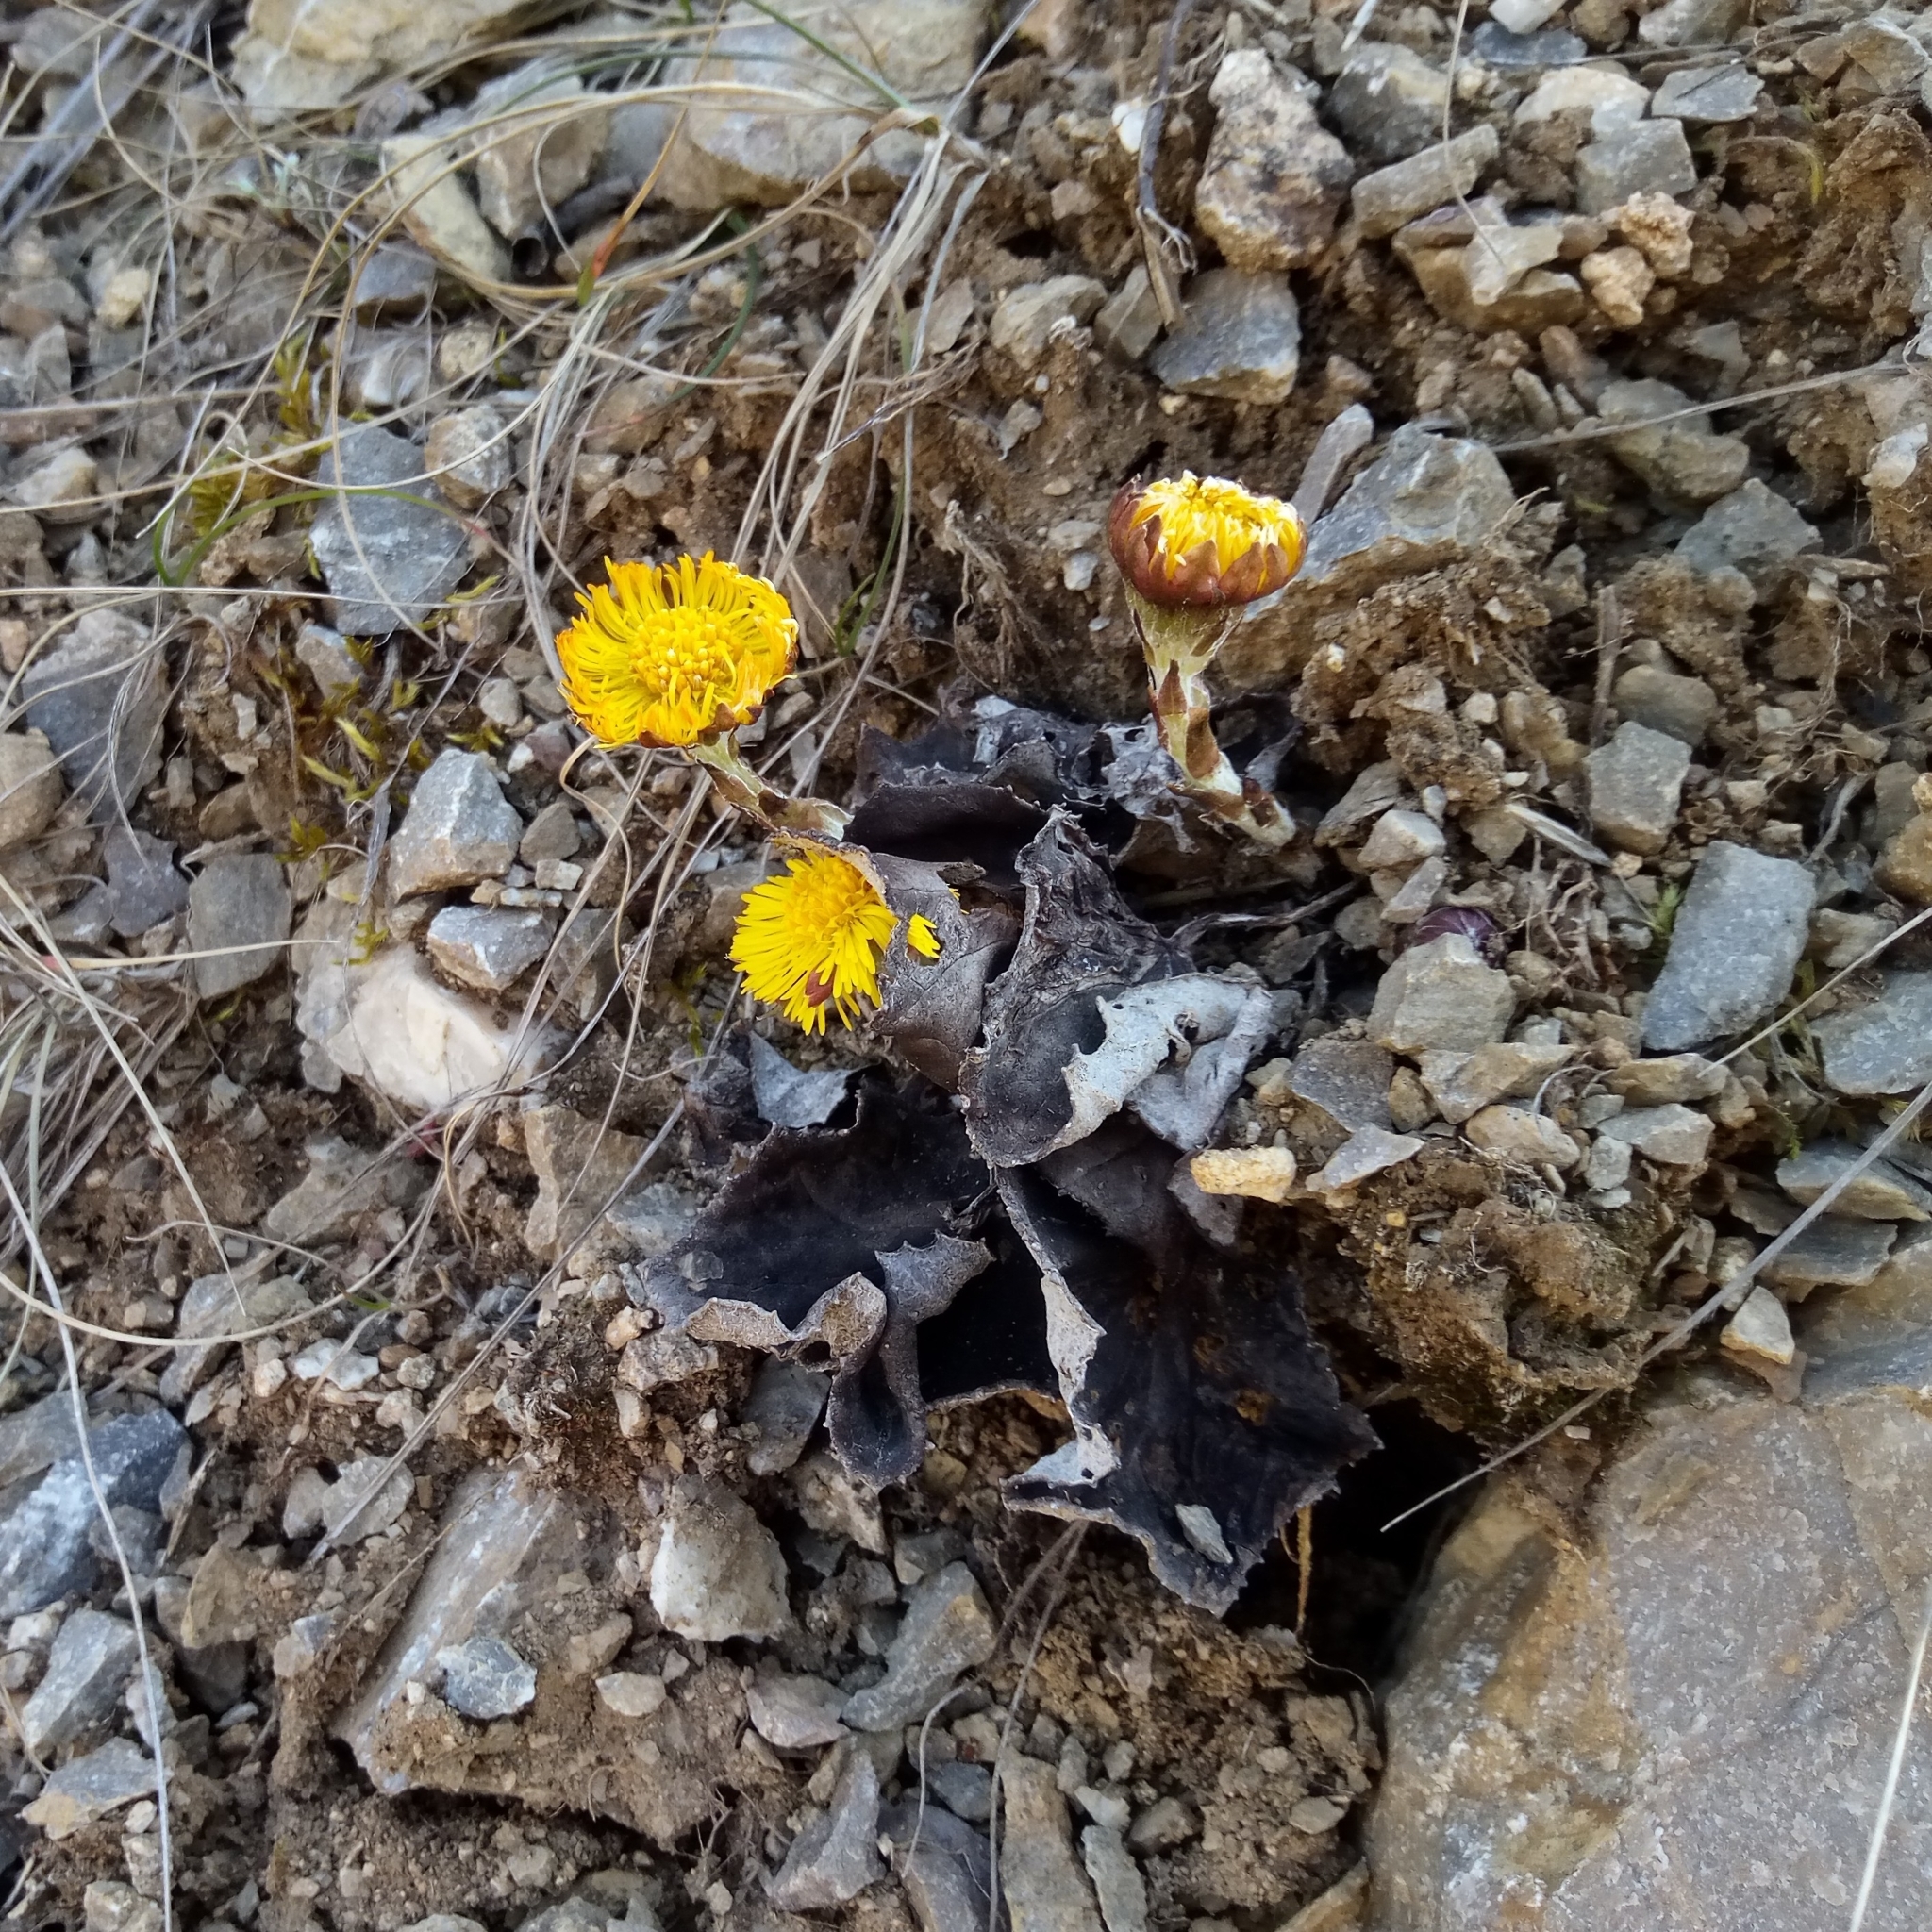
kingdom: Plantae
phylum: Tracheophyta
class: Magnoliopsida
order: Asterales
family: Asteraceae
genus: Tussilago
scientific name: Tussilago farfara
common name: Coltsfoot
